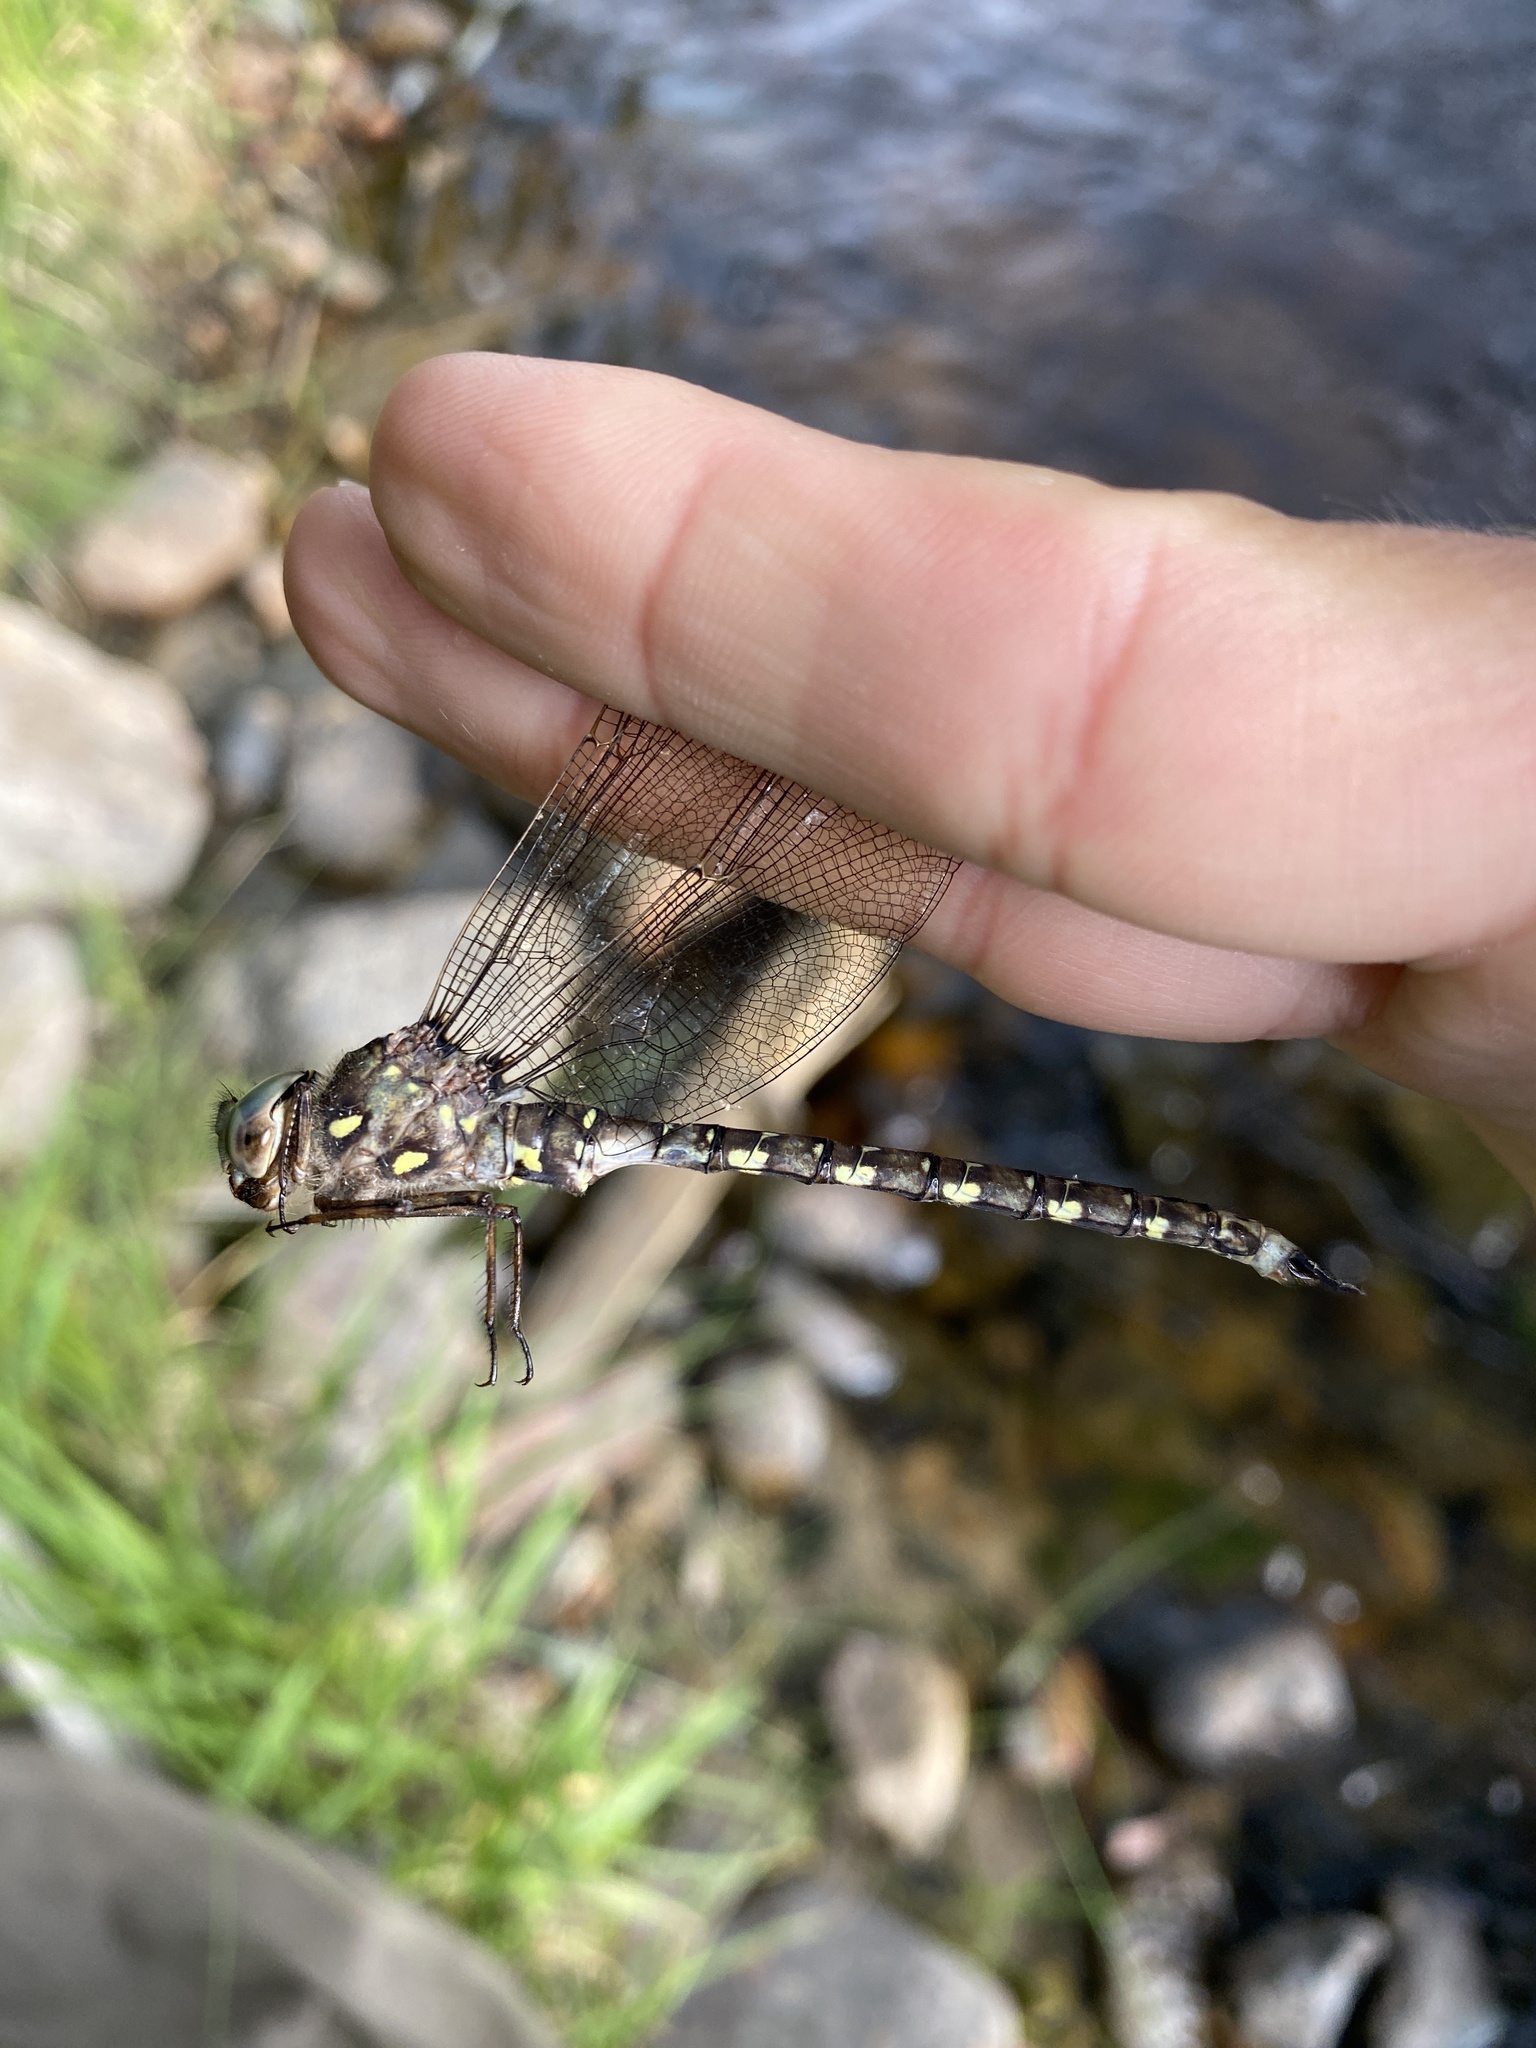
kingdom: Animalia
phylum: Arthropoda
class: Insecta
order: Odonata
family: Aeshnidae
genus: Boyeria
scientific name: Boyeria grafiana
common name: Ocellated darner
